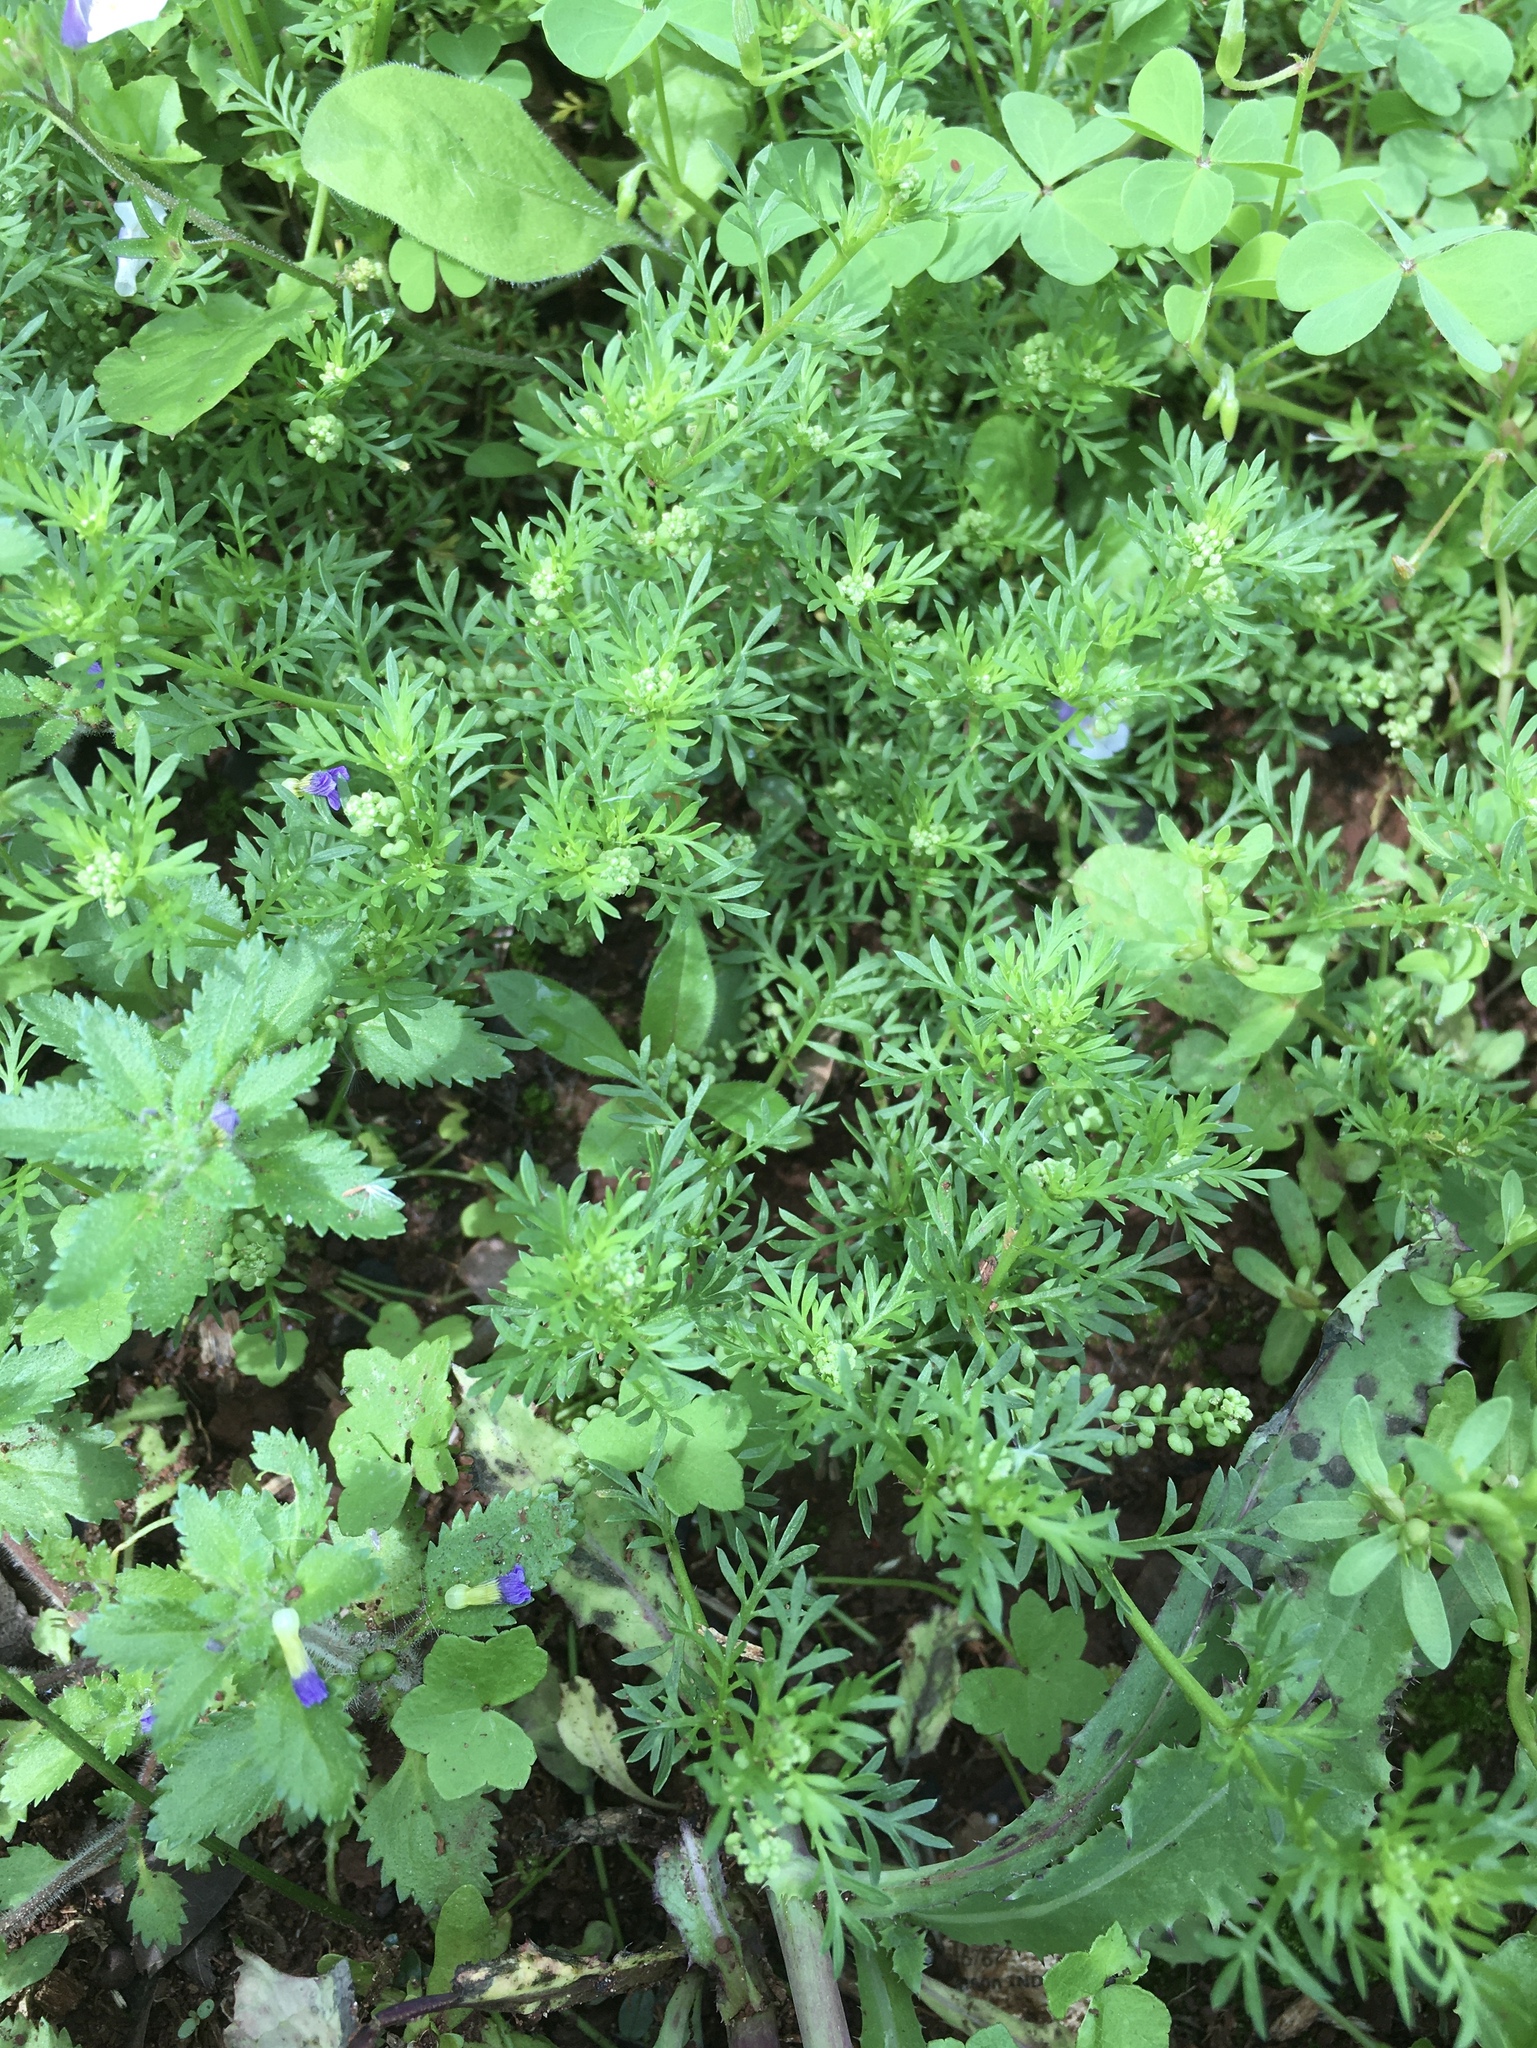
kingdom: Plantae
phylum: Tracheophyta
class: Magnoliopsida
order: Brassicales
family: Brassicaceae
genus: Lepidium
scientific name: Lepidium didymum
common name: Lesser swinecress
